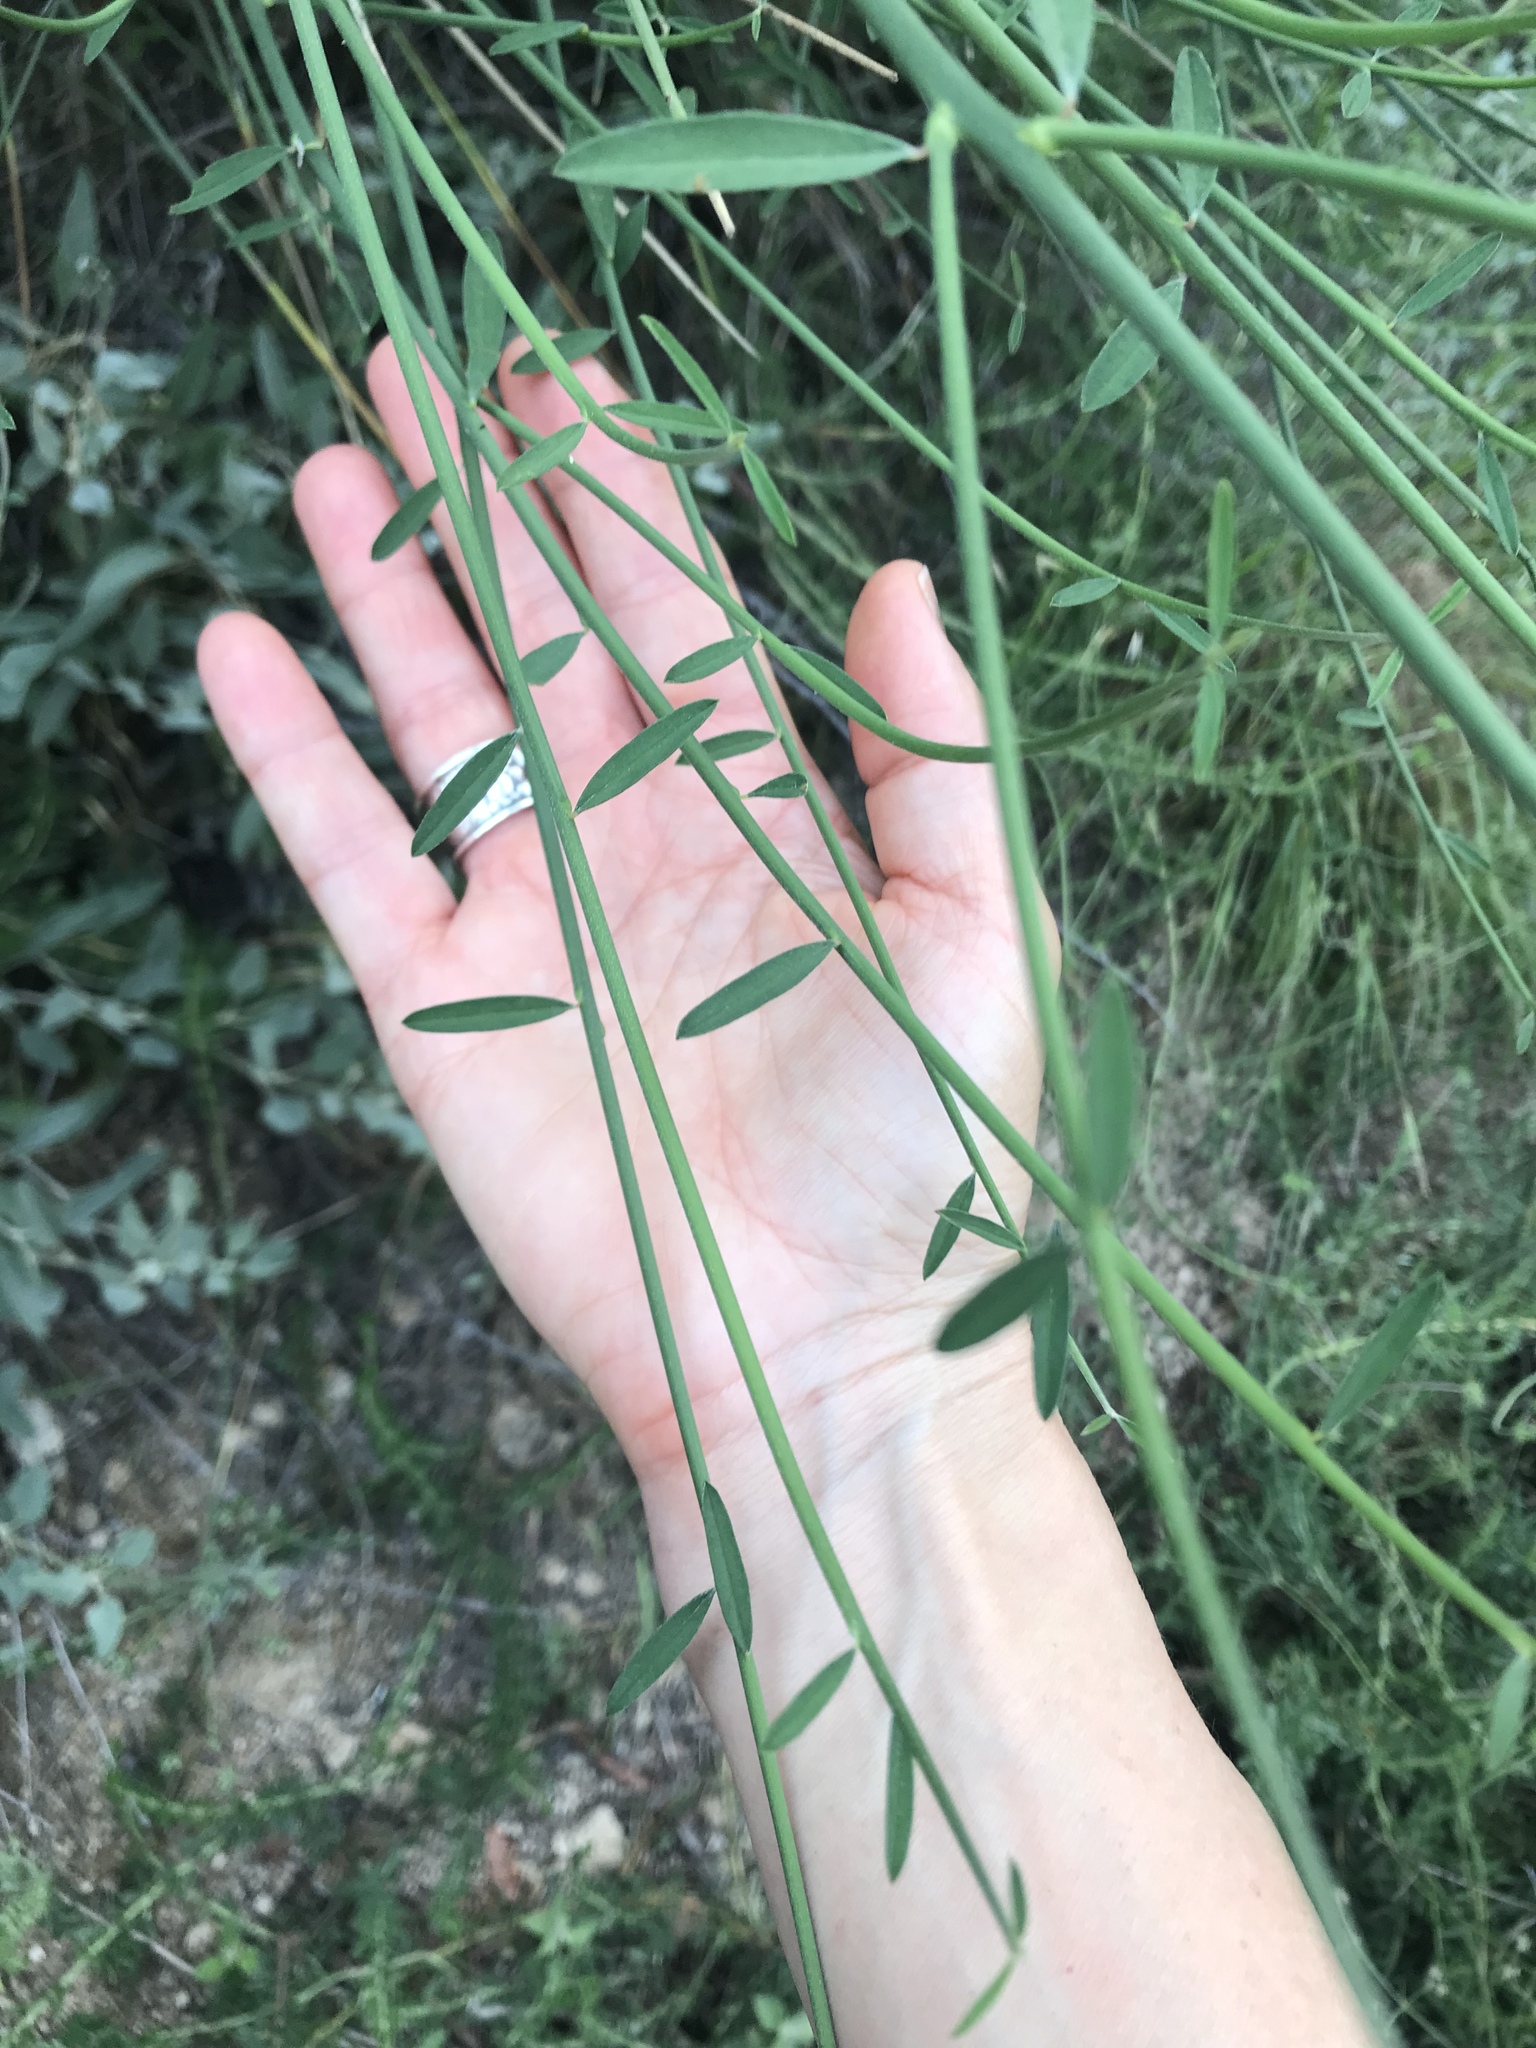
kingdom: Plantae
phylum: Tracheophyta
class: Magnoliopsida
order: Fabales
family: Fabaceae
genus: Spartium
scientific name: Spartium junceum
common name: Spanish broom
